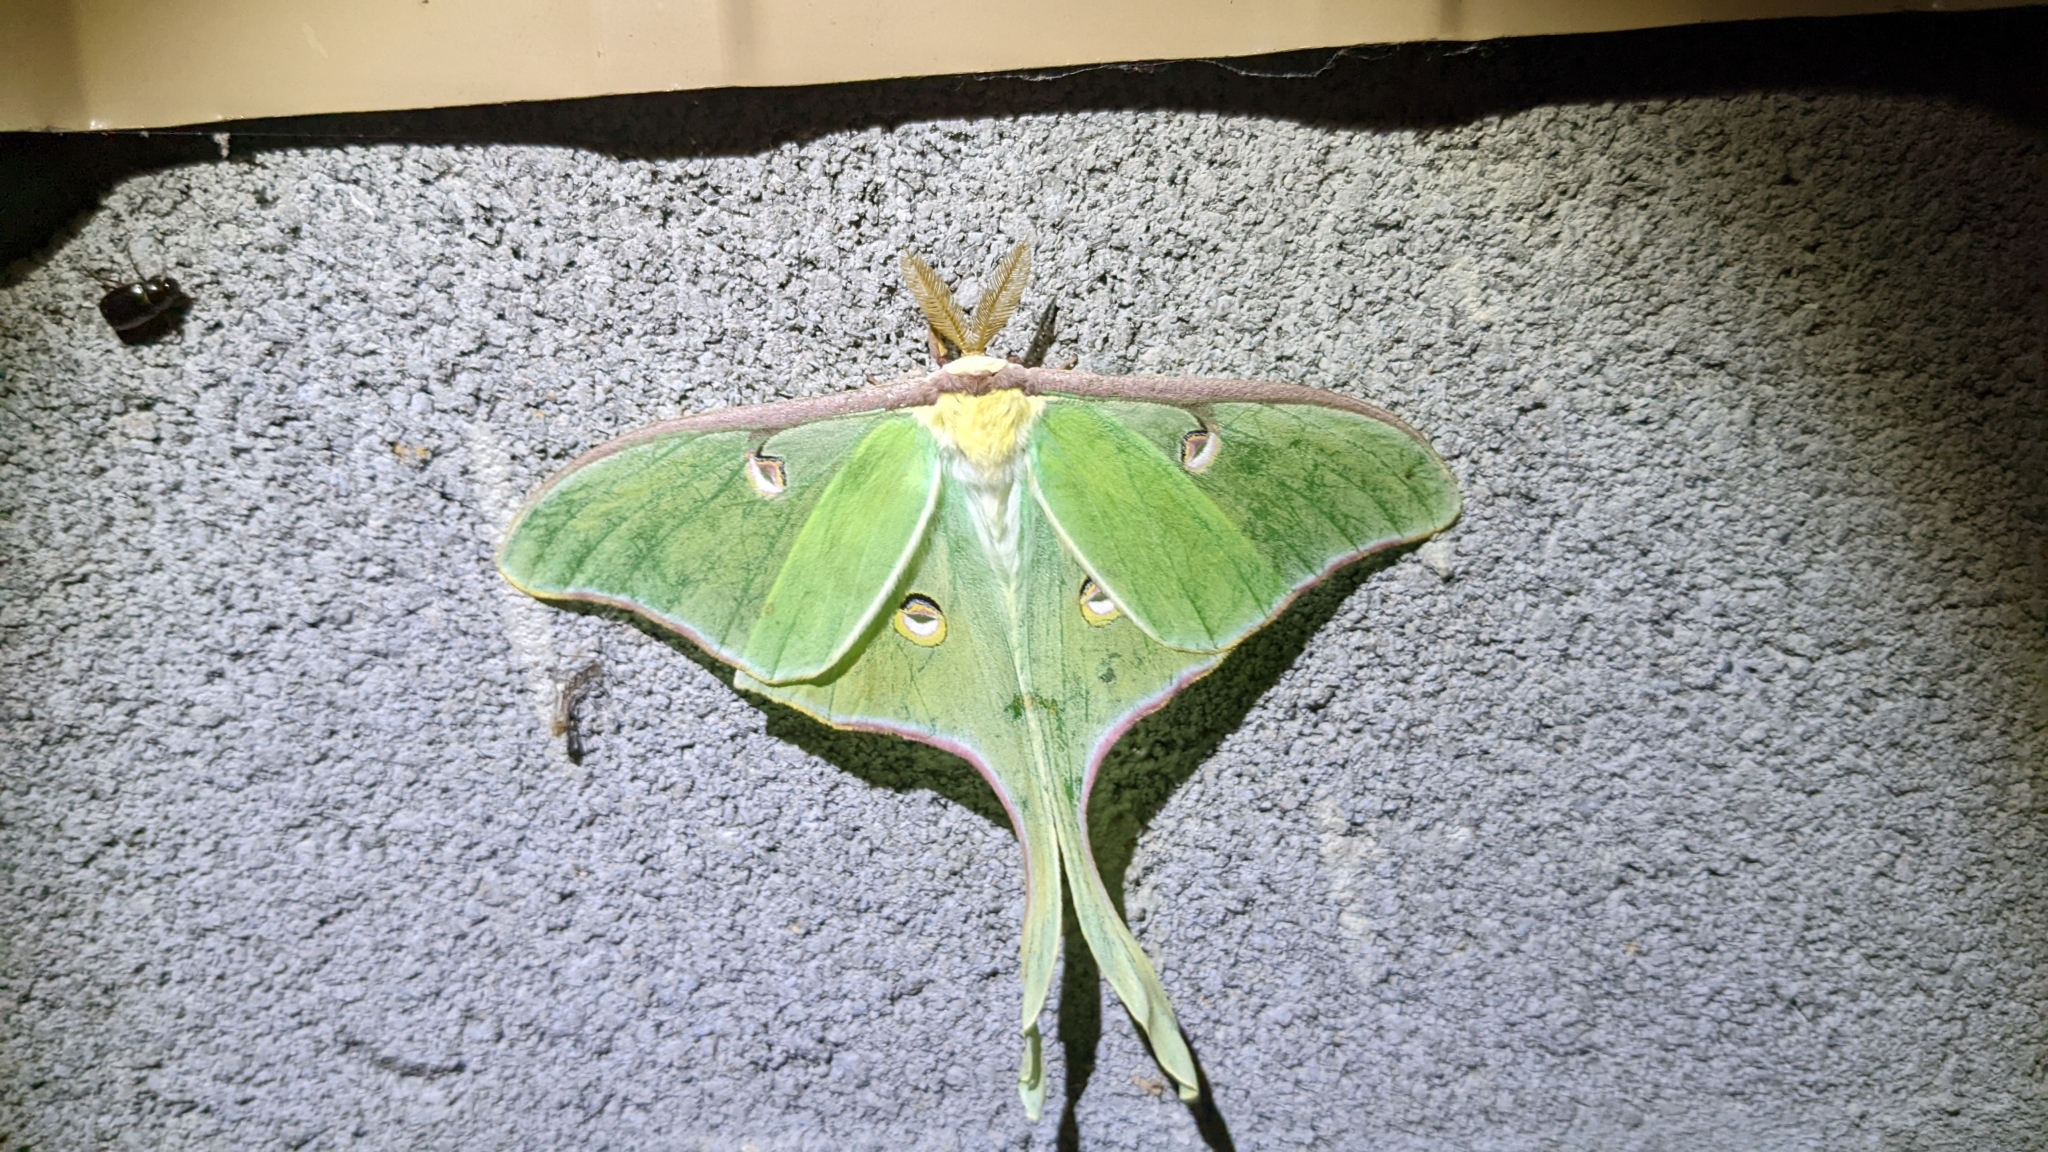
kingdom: Animalia
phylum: Arthropoda
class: Insecta
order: Lepidoptera
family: Saturniidae
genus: Actias
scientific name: Actias luna
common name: Luna moth
